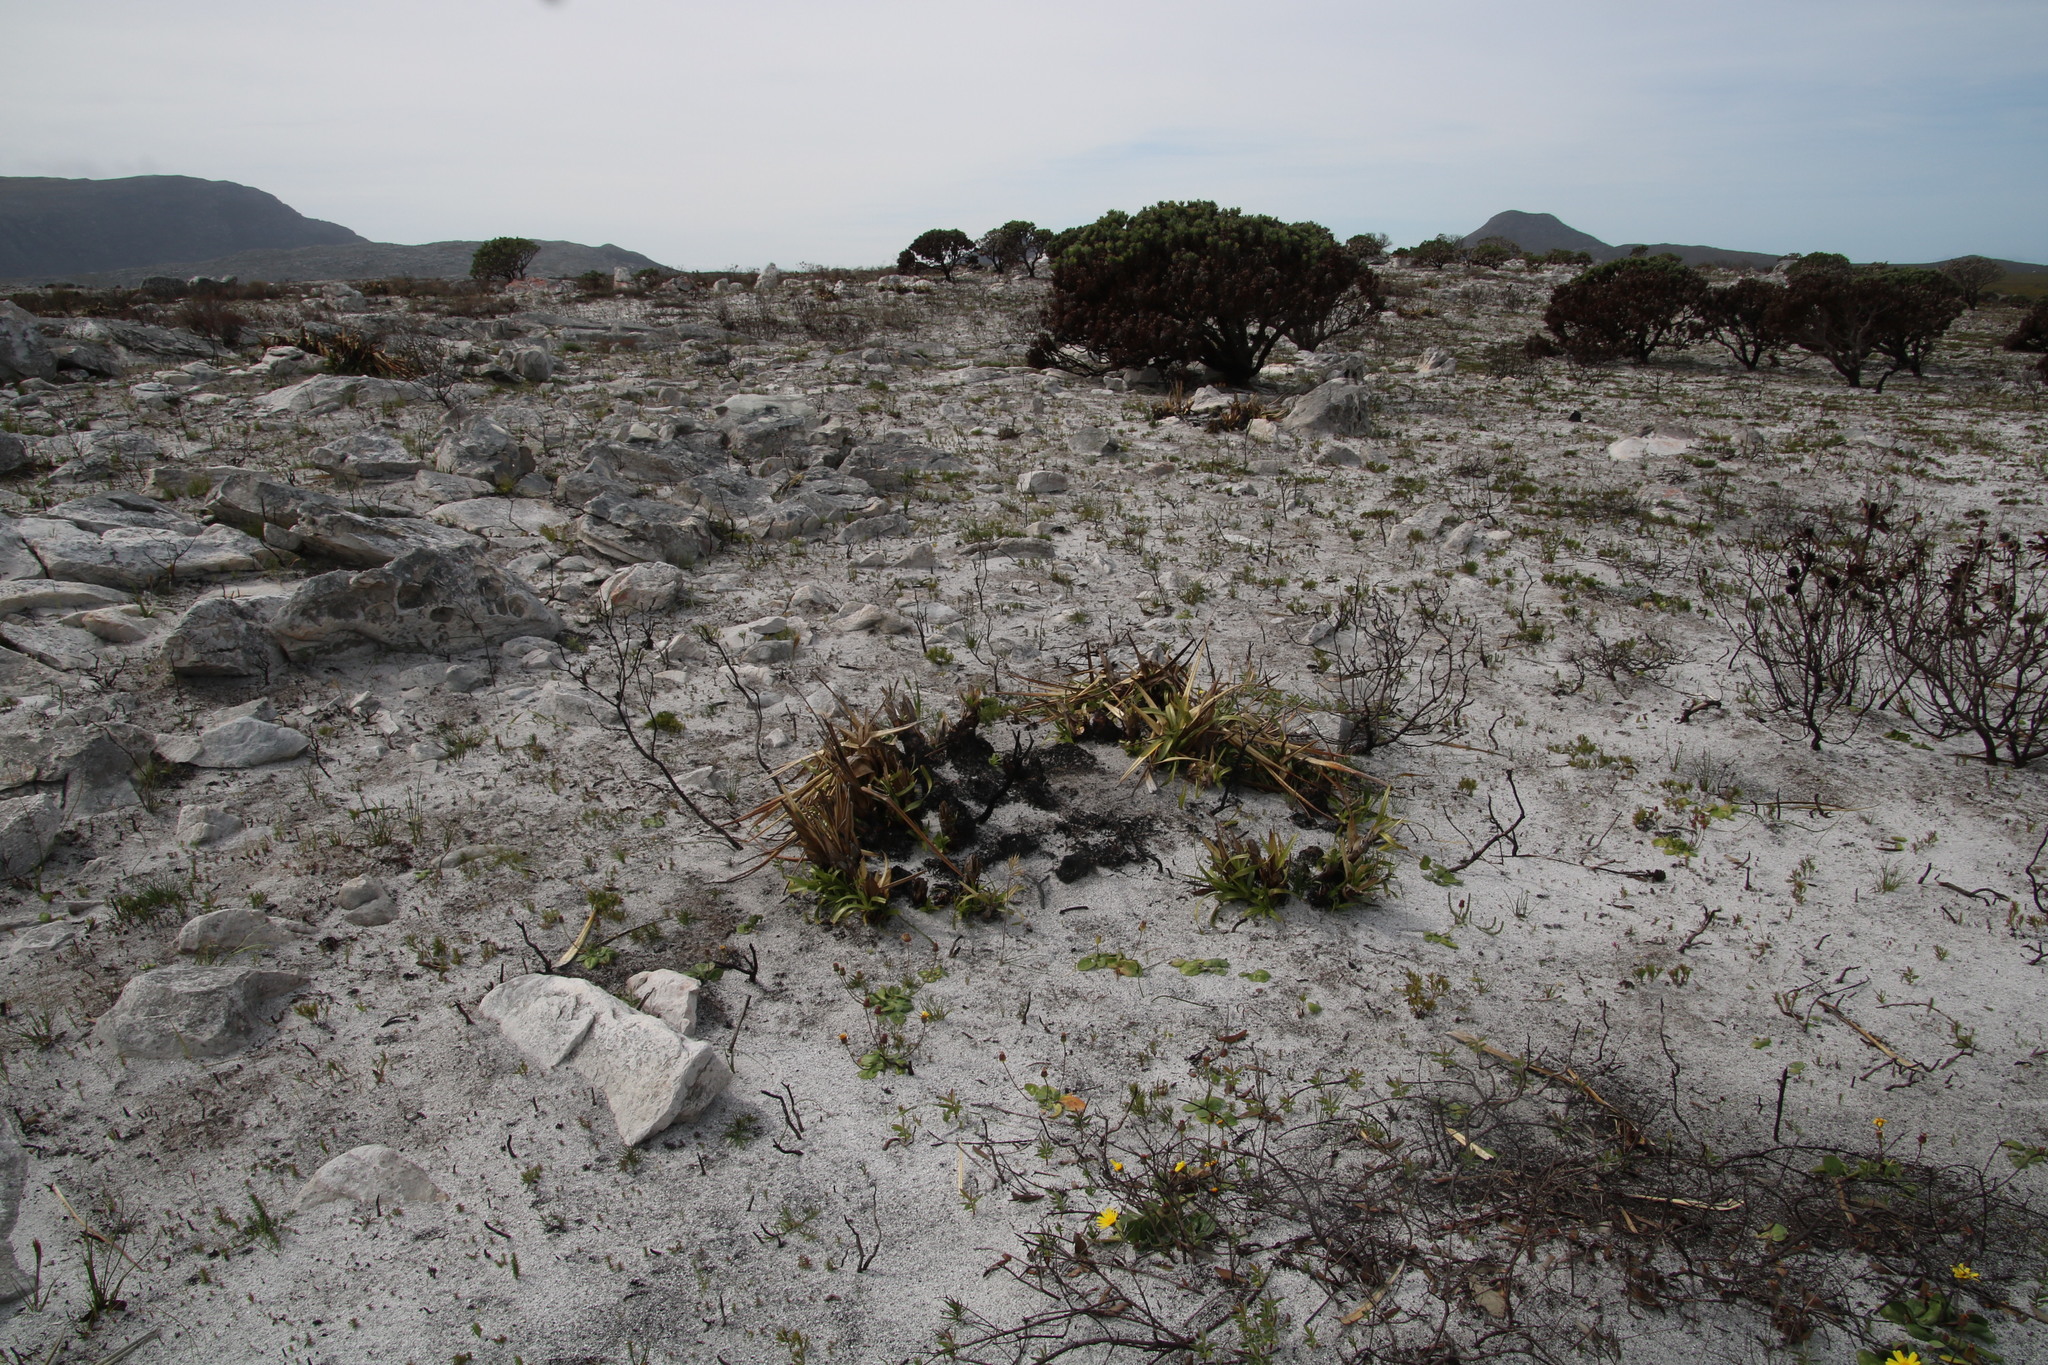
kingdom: Plantae
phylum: Tracheophyta
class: Liliopsida
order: Poales
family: Cyperaceae
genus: Tetraria
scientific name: Tetraria thermalis
